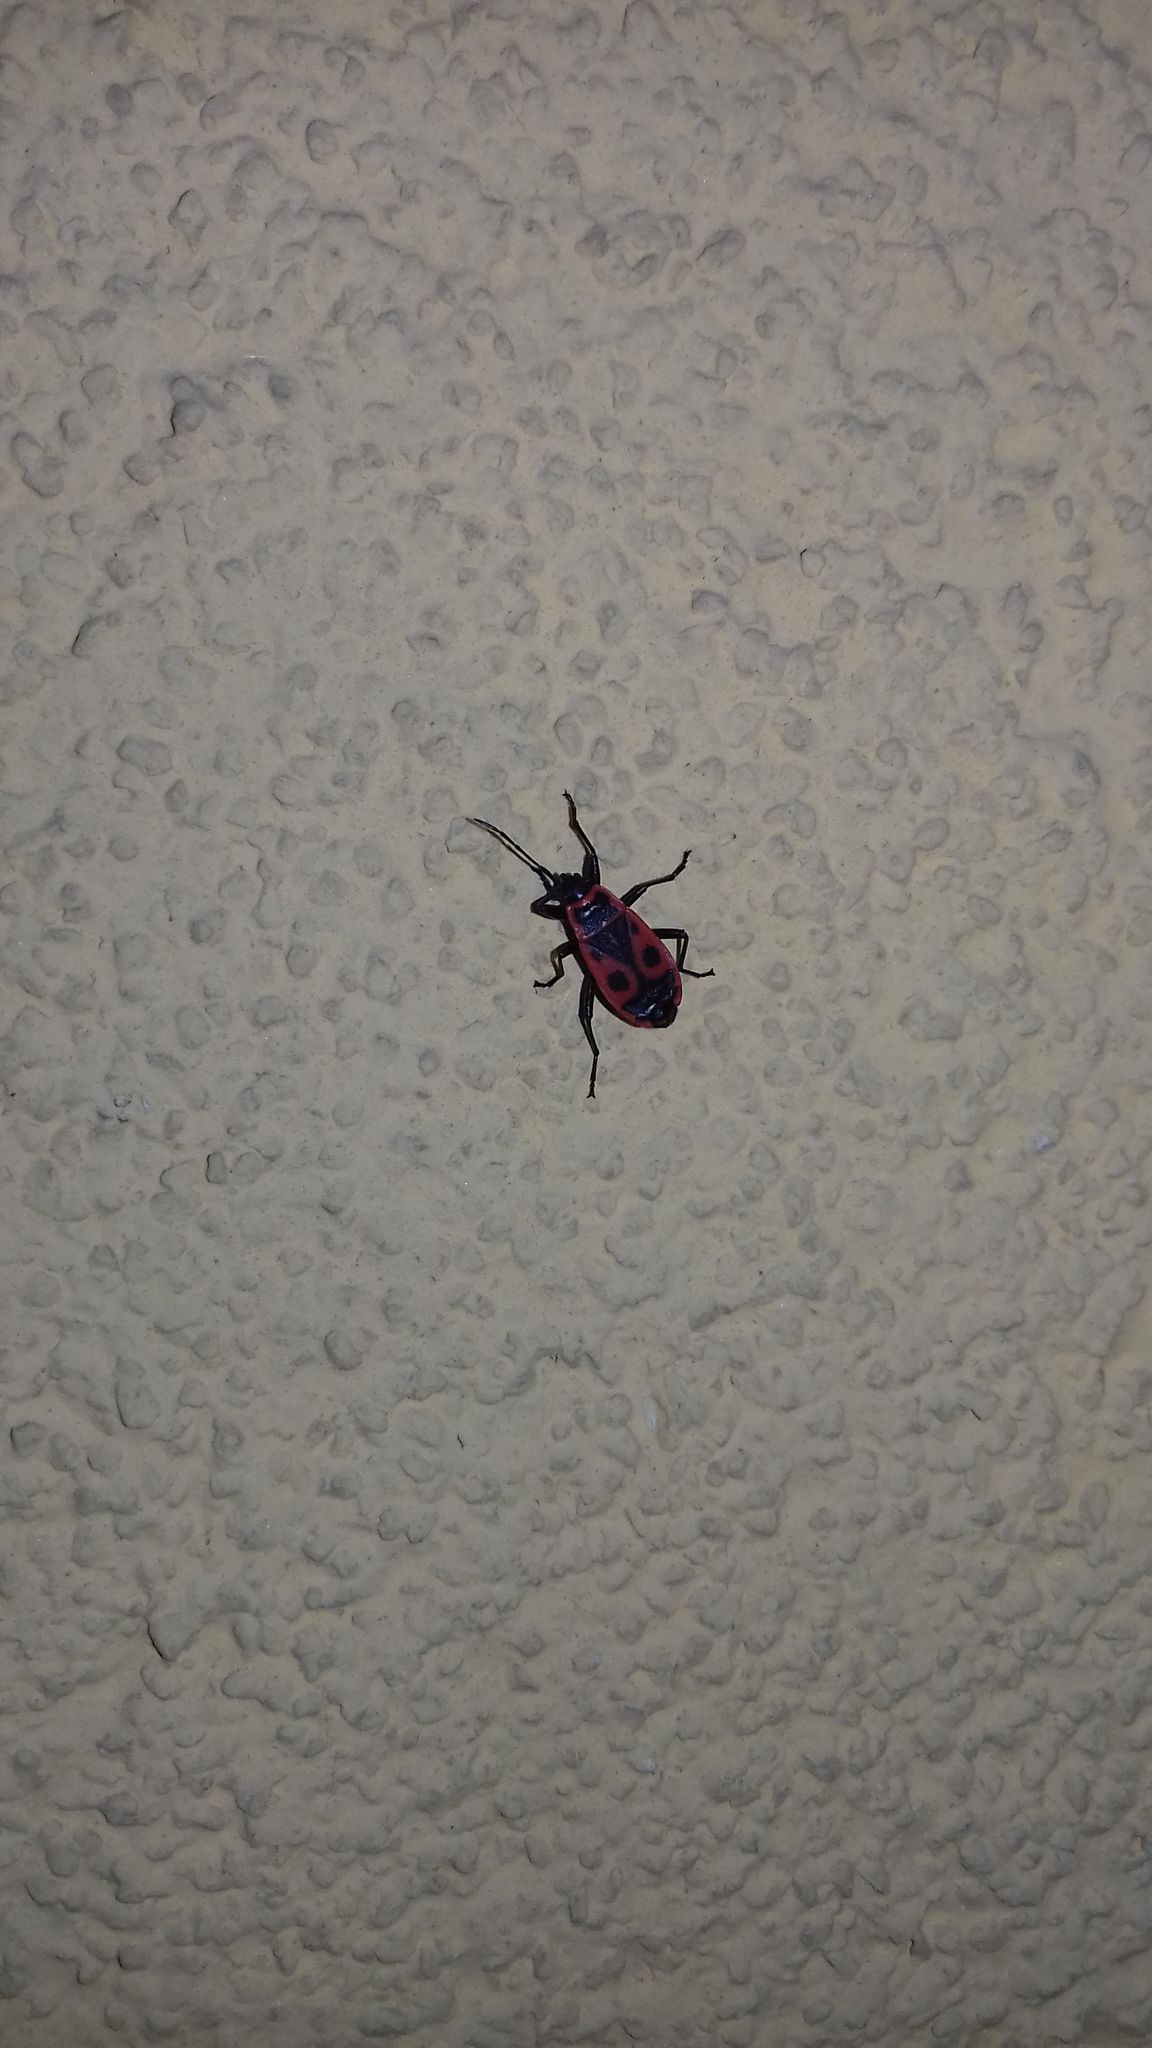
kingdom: Animalia
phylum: Arthropoda
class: Insecta
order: Hemiptera
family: Pyrrhocoridae
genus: Pyrrhocoris
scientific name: Pyrrhocoris apterus
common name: Firebug
